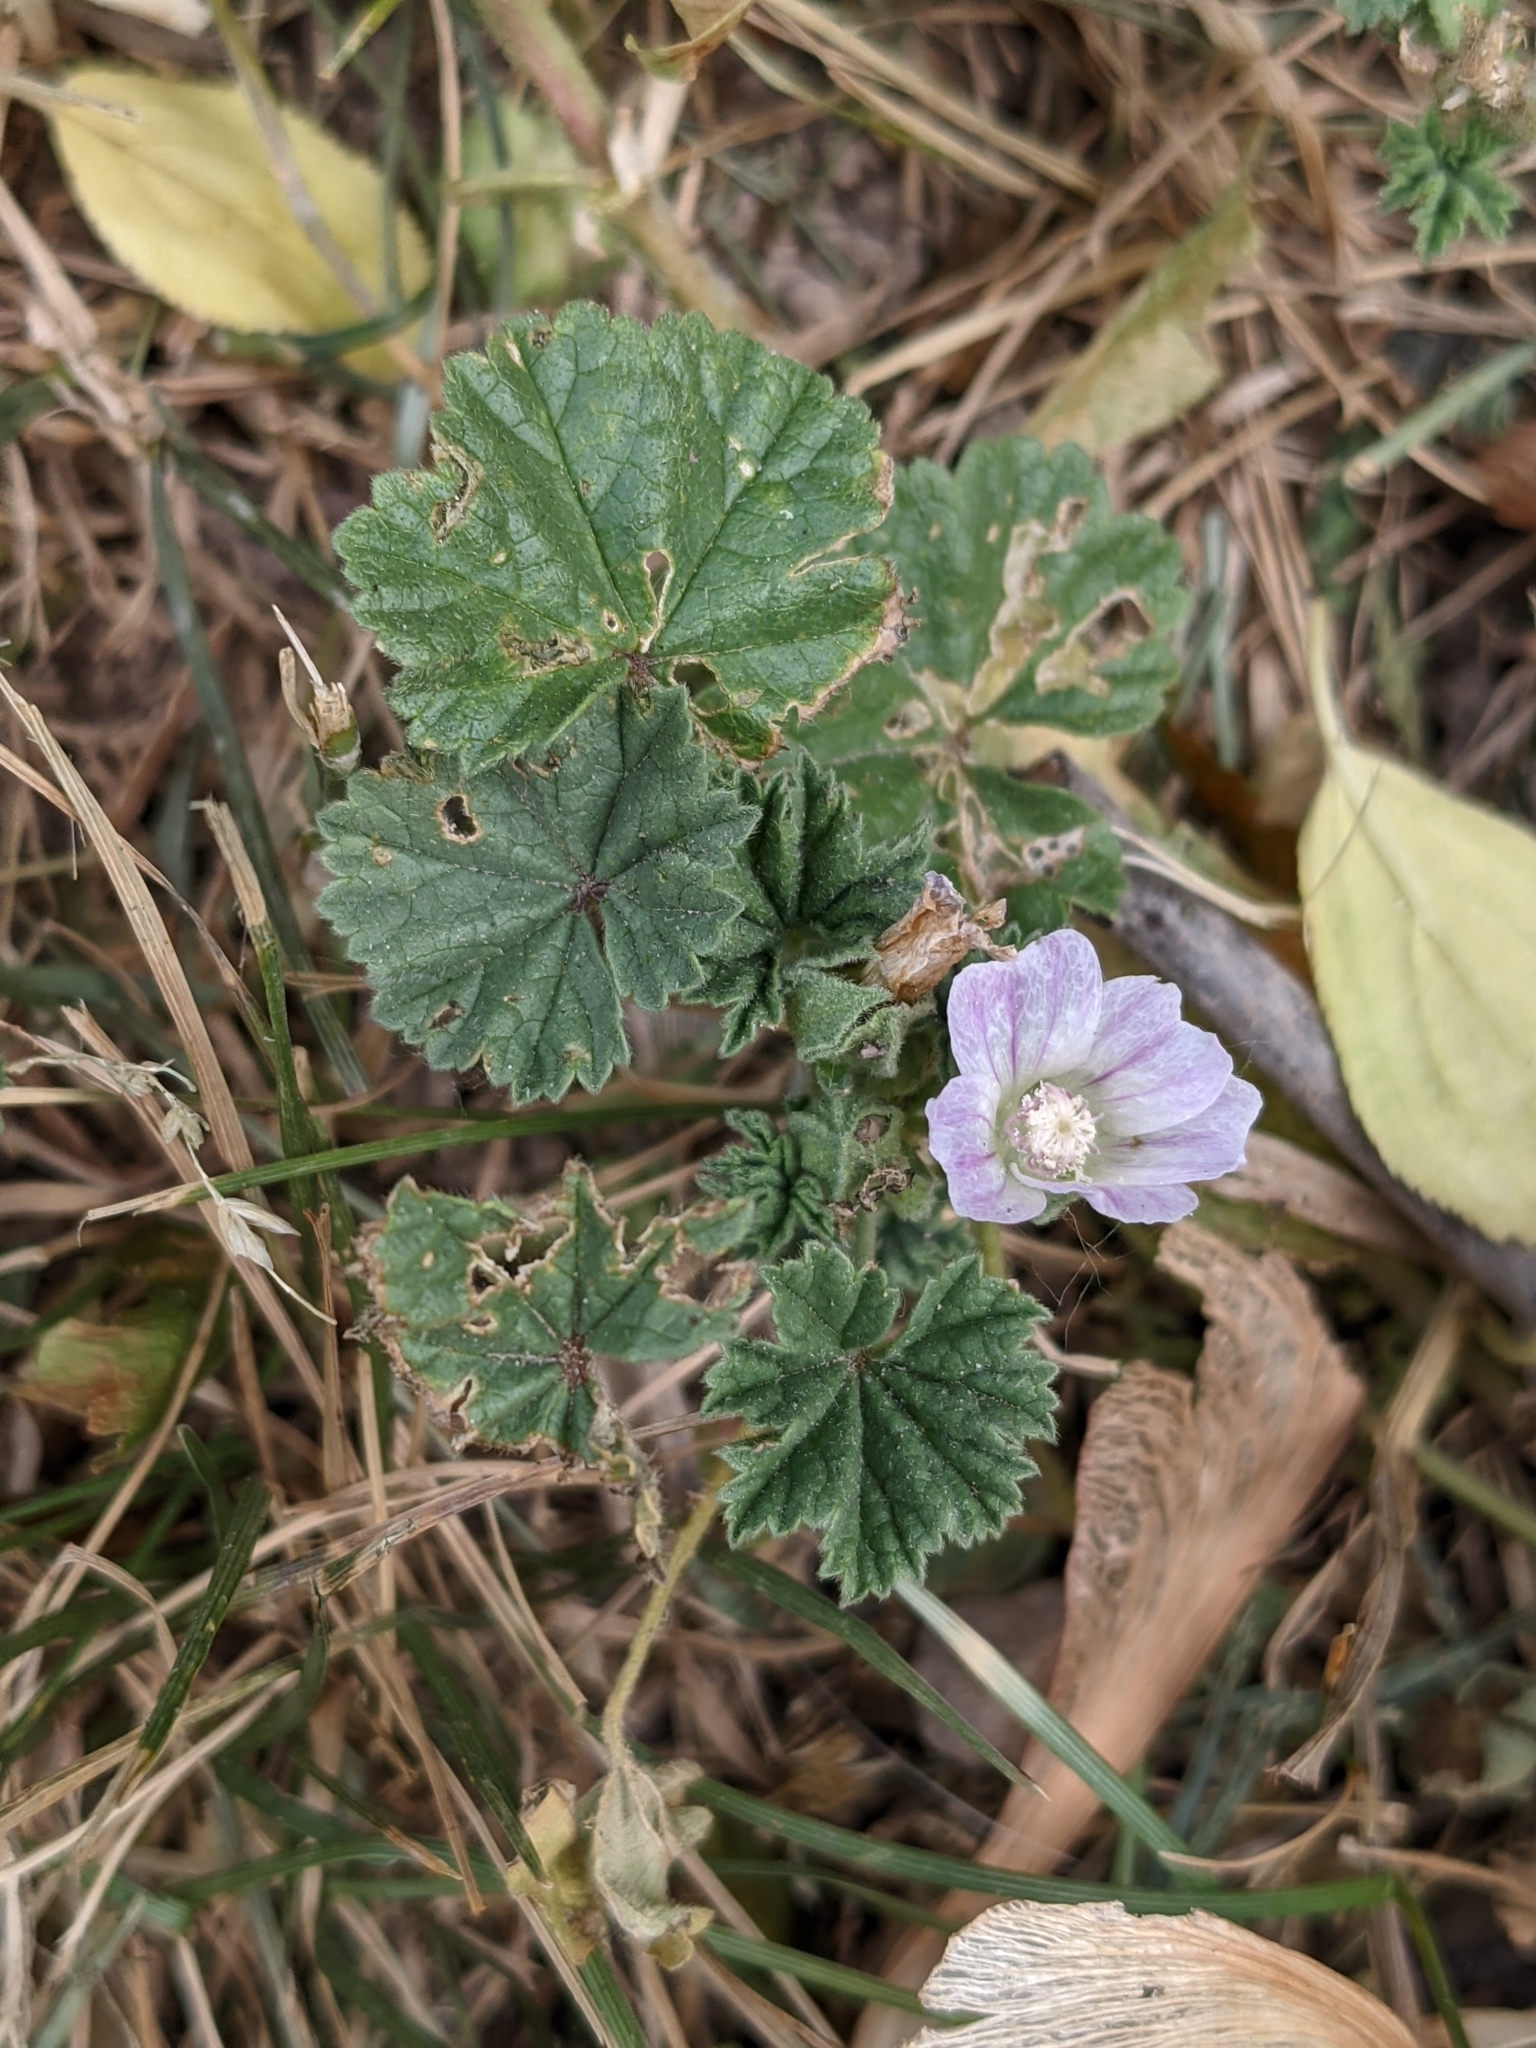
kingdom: Plantae
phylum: Tracheophyta
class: Magnoliopsida
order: Malvales
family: Malvaceae
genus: Malva
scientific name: Malva neglecta
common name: Common mallow
